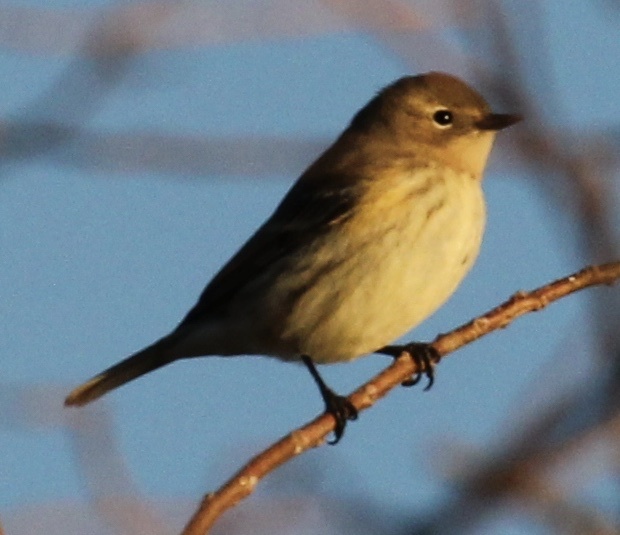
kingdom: Animalia
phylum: Chordata
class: Aves
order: Passeriformes
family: Parulidae
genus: Setophaga
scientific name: Setophaga coronata
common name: Myrtle warbler
